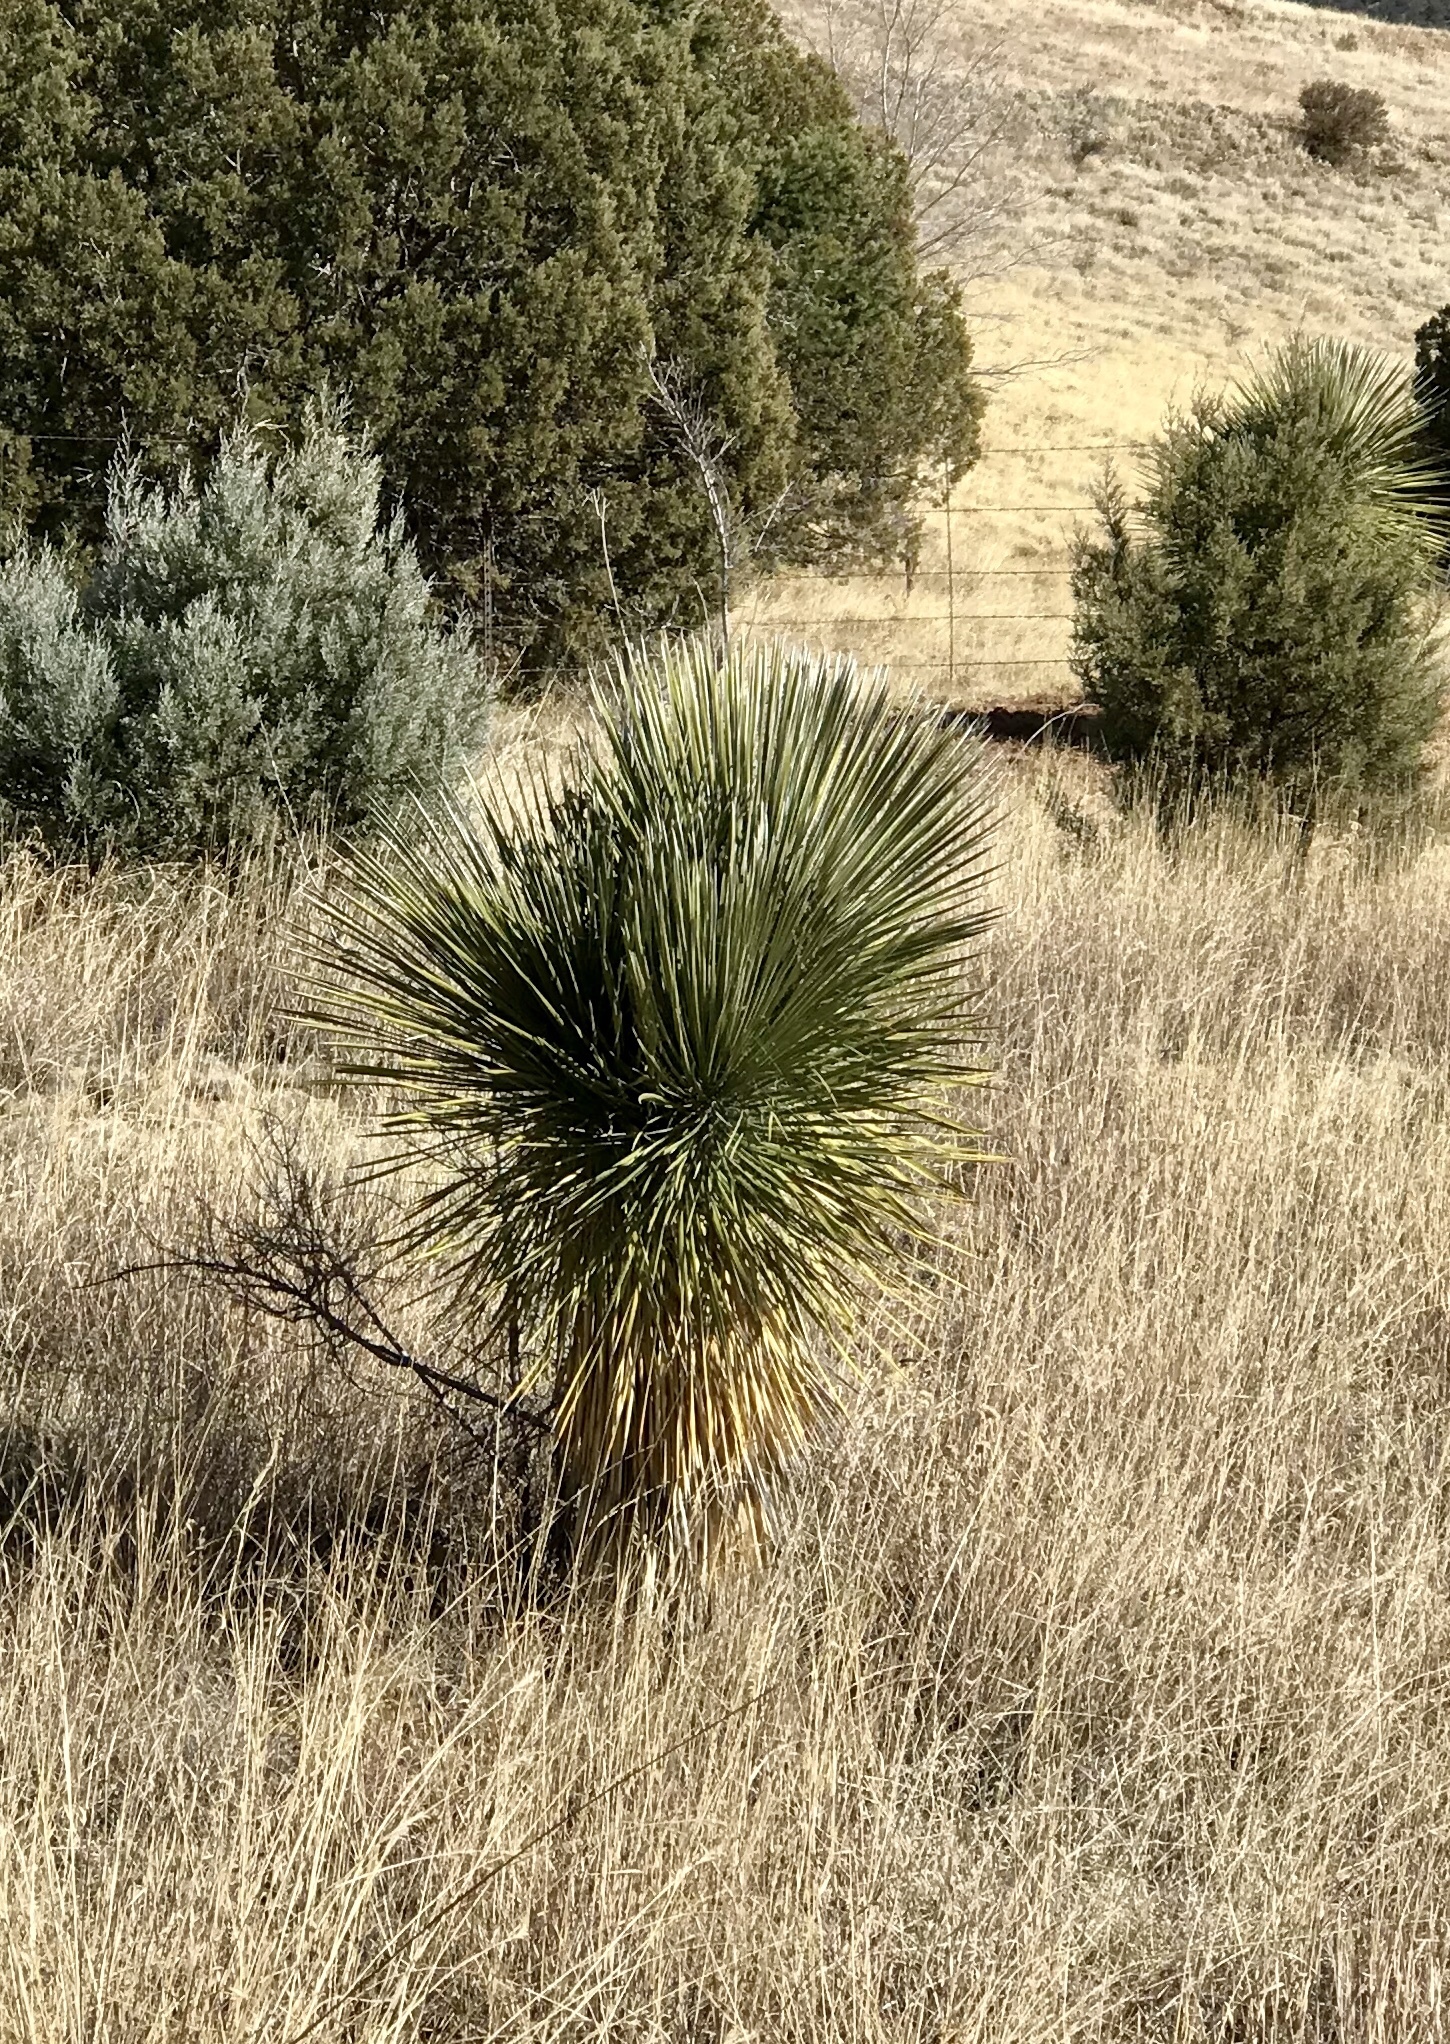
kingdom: Plantae
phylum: Tracheophyta
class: Liliopsida
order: Asparagales
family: Asparagaceae
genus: Yucca
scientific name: Yucca elata
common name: Palmella
